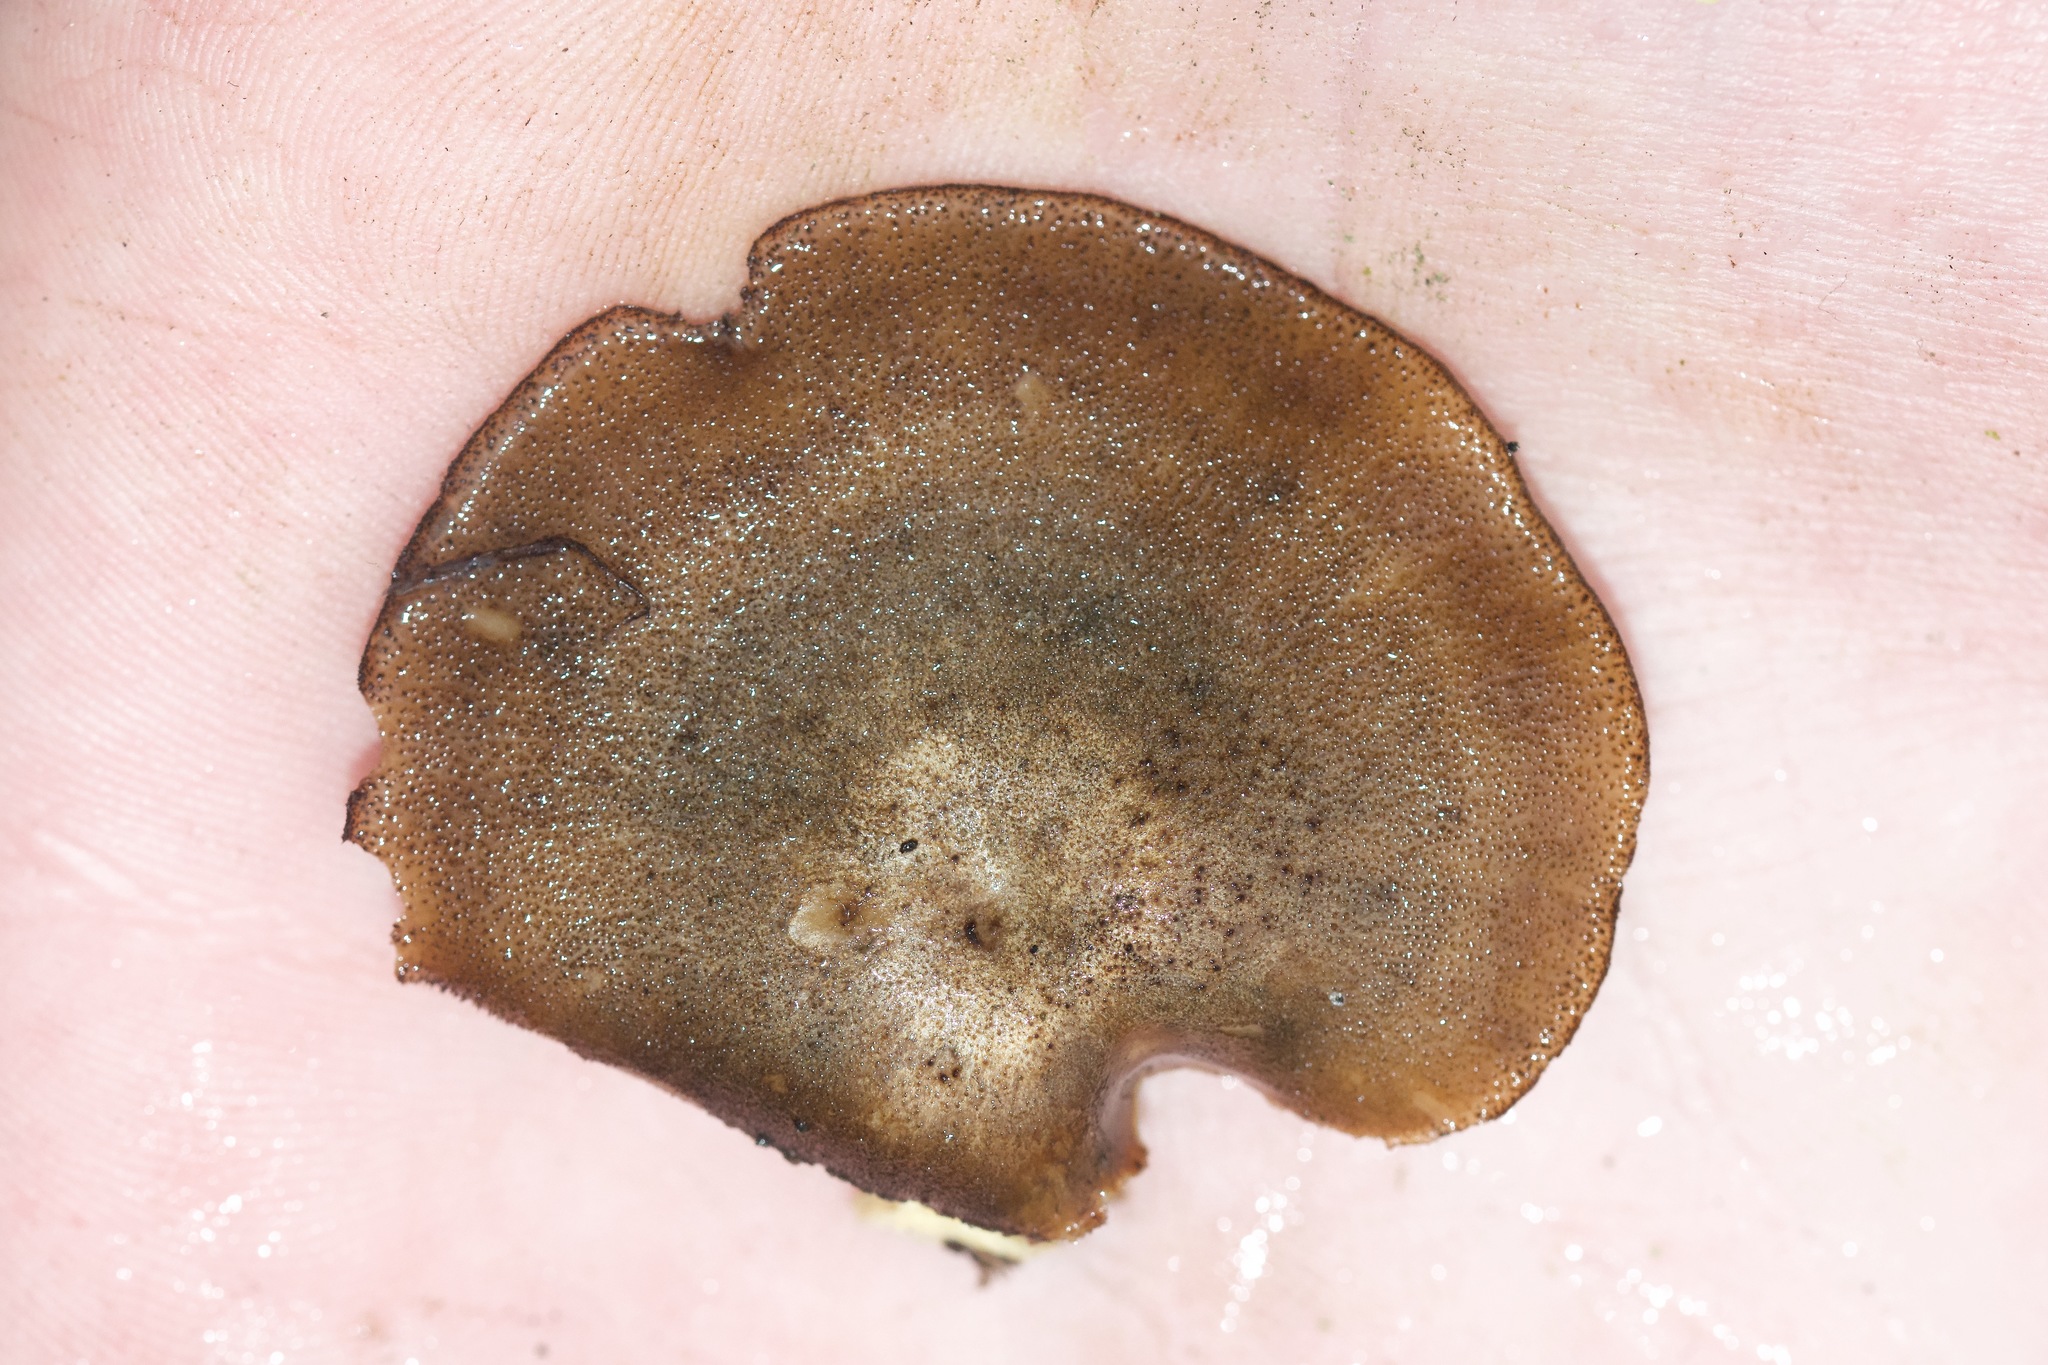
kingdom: Fungi
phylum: Basidiomycota
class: Agaricomycetes
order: Polyporales
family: Polyporaceae
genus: Lentinus
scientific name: Lentinus brumalis
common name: Winter polypore
